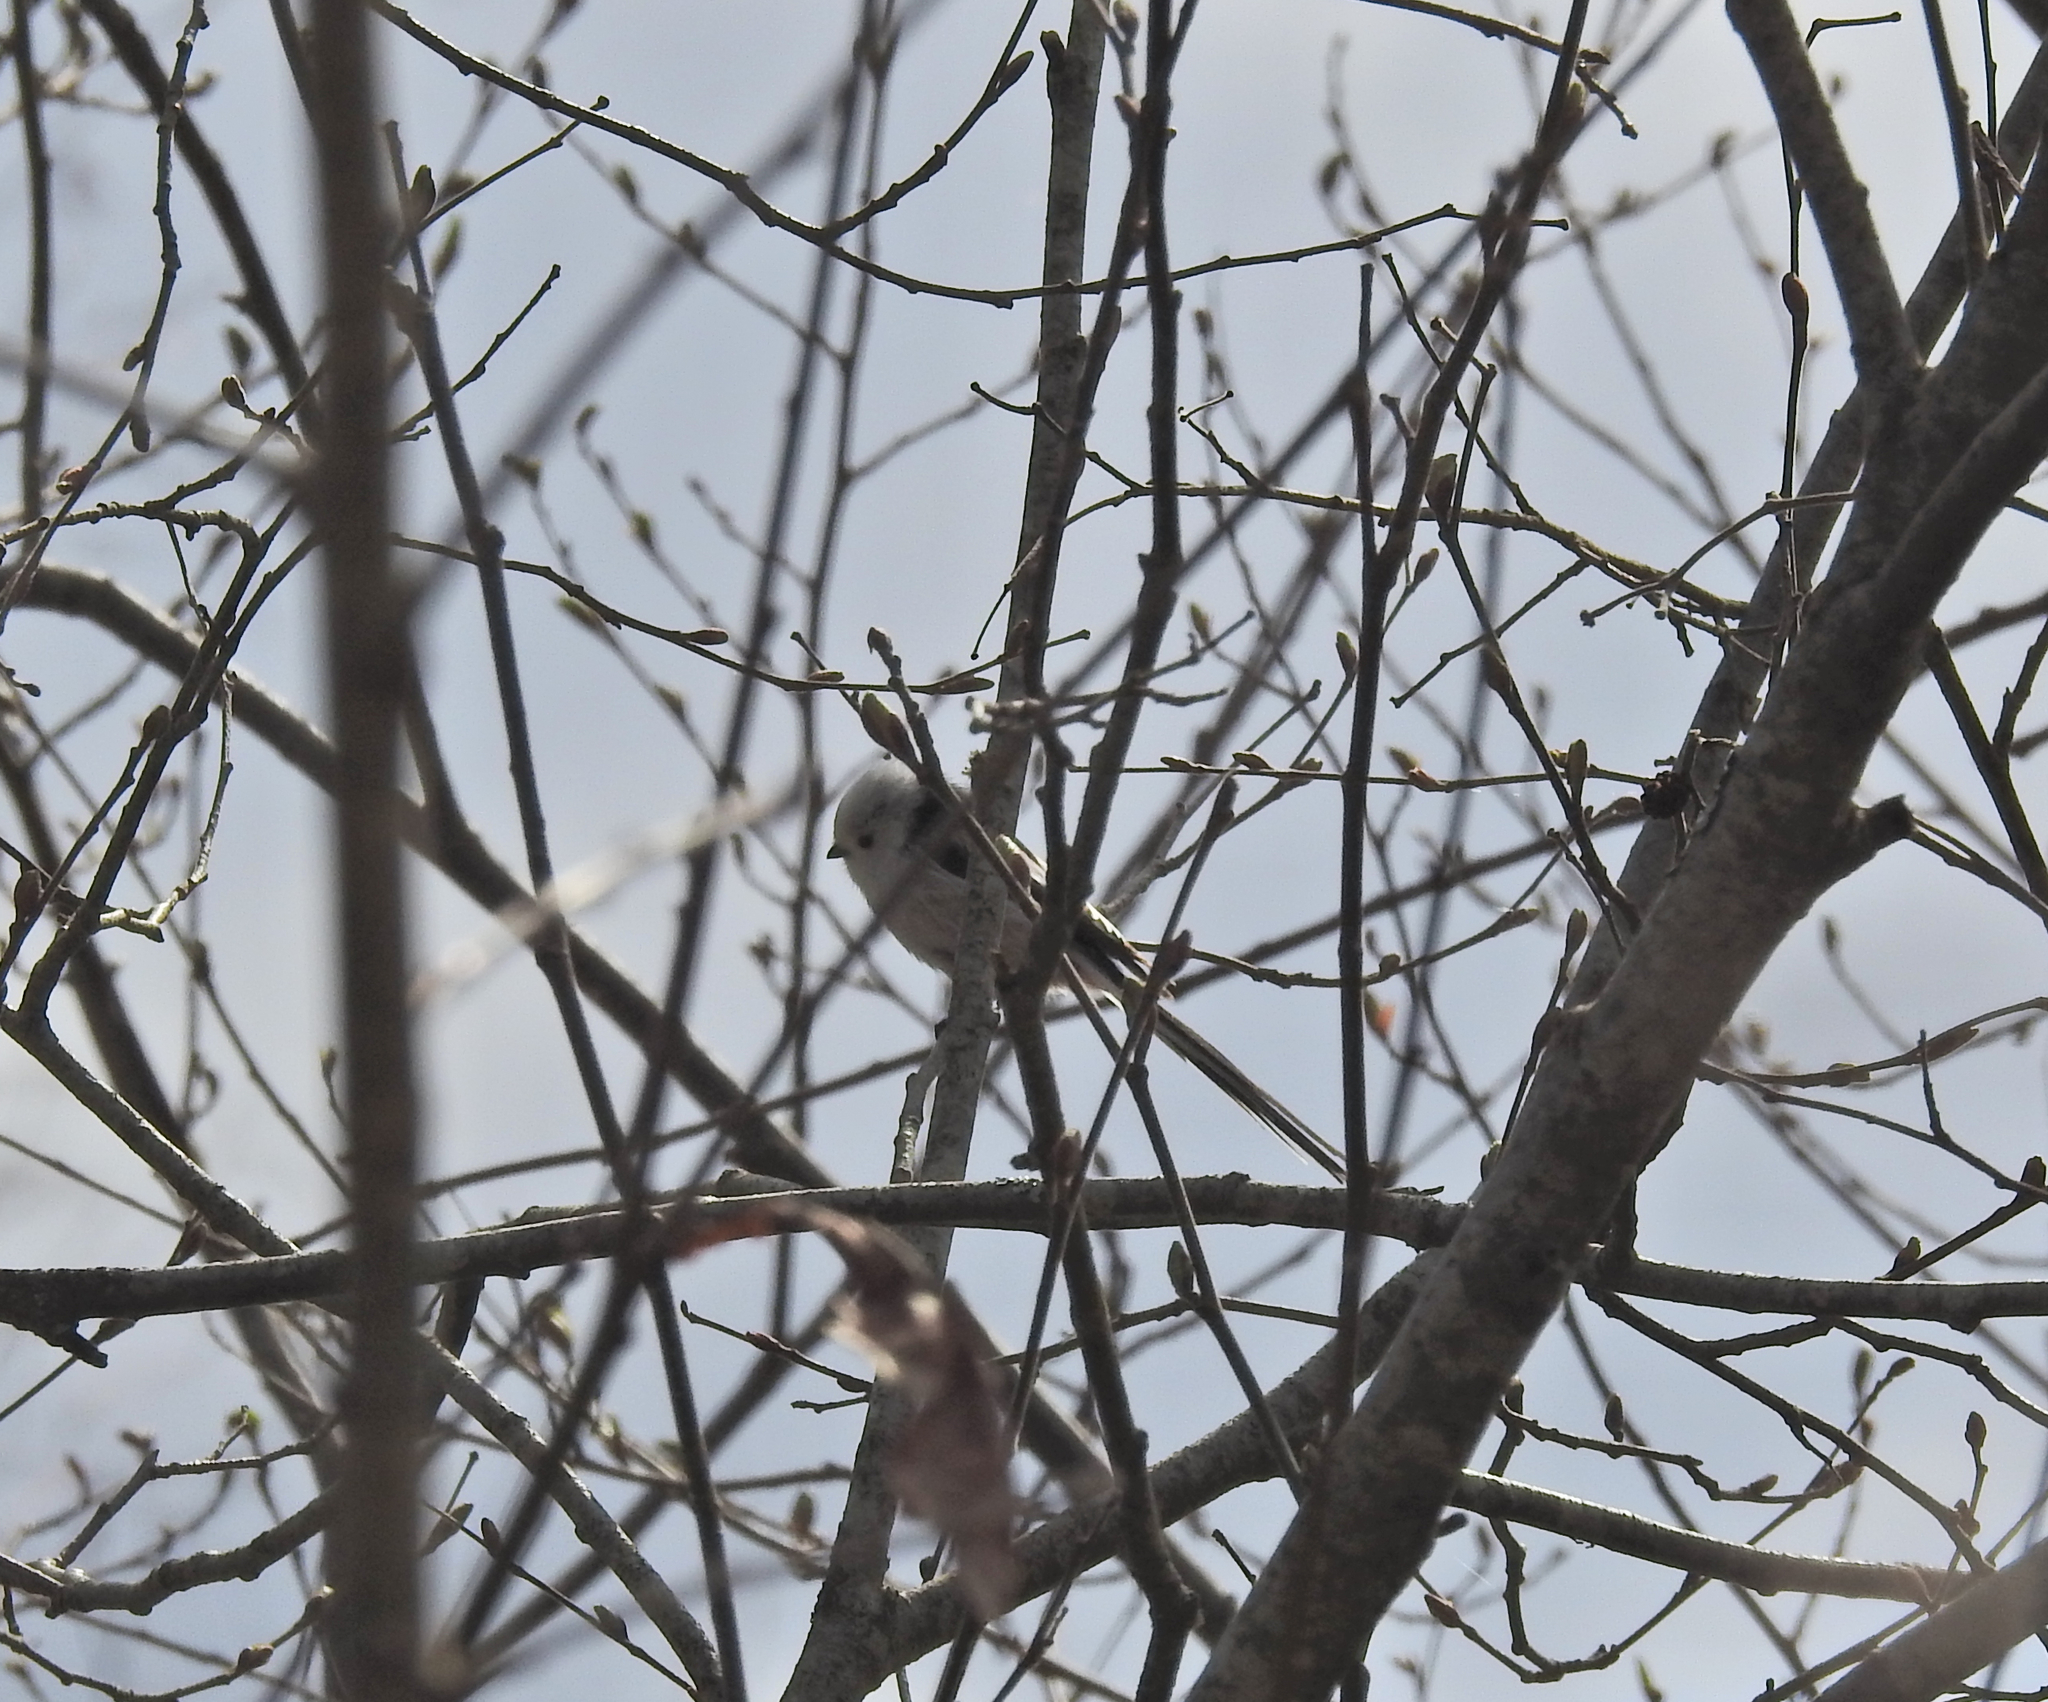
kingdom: Animalia
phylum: Chordata
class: Aves
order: Passeriformes
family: Aegithalidae
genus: Aegithalos
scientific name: Aegithalos caudatus
